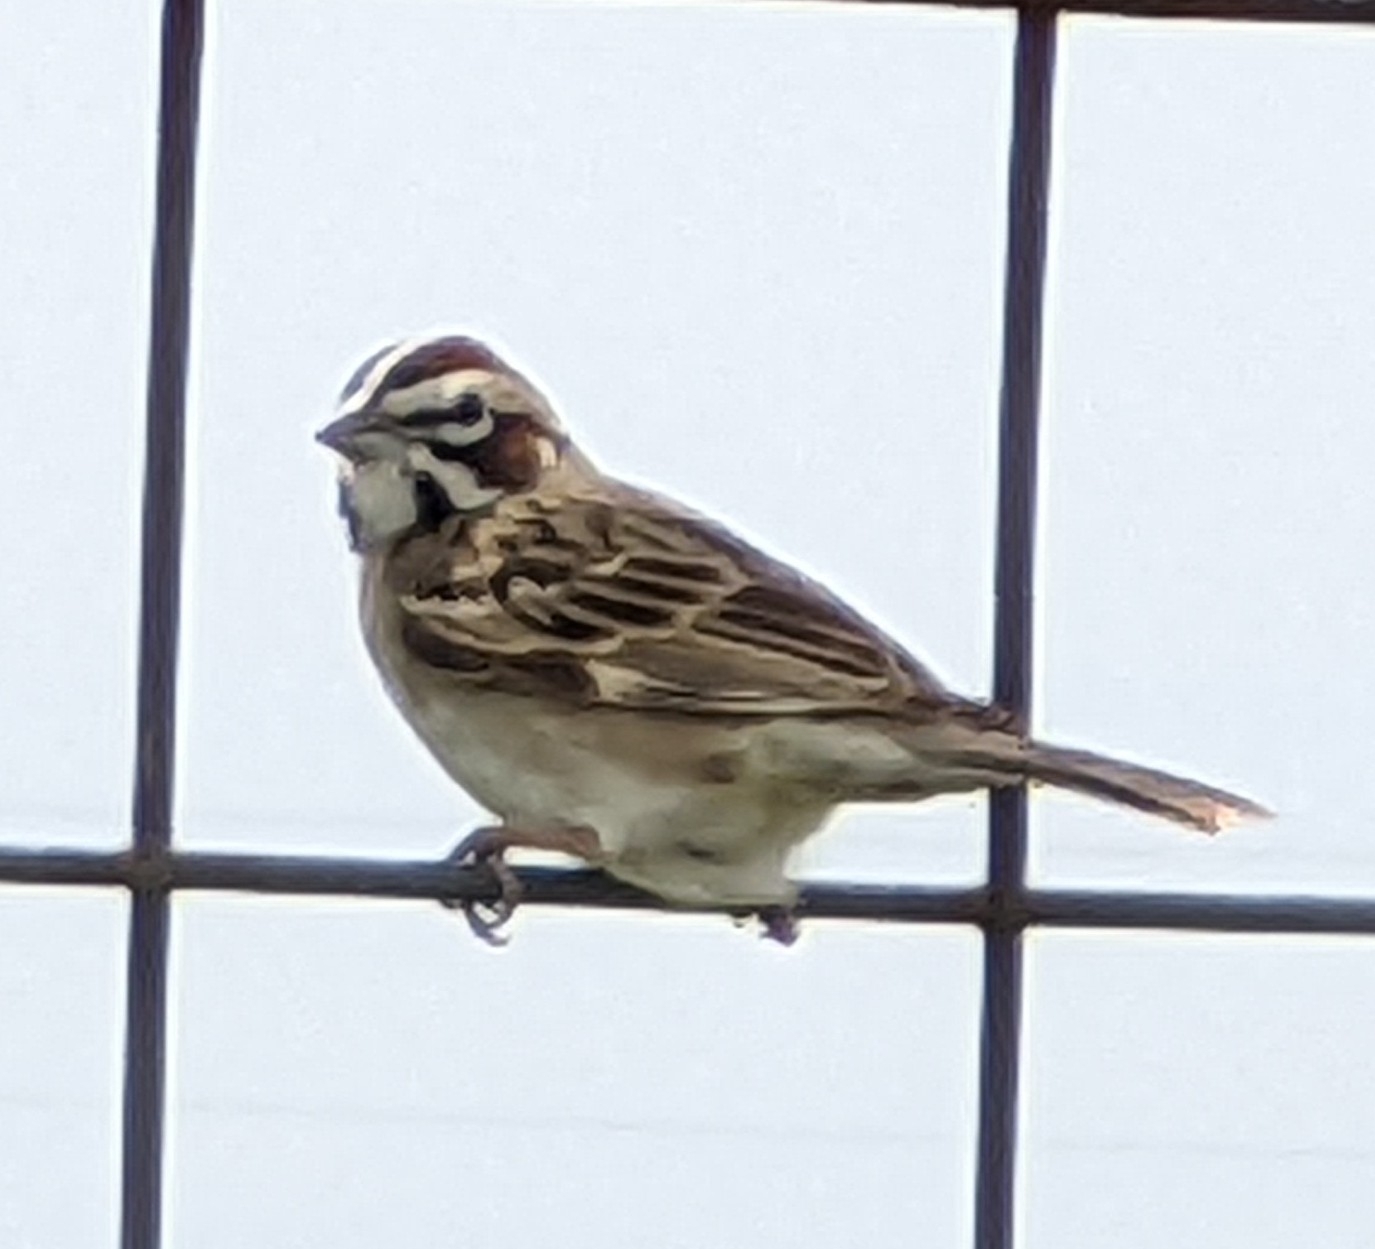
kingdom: Animalia
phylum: Chordata
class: Aves
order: Passeriformes
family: Passerellidae
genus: Chondestes
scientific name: Chondestes grammacus
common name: Lark sparrow
